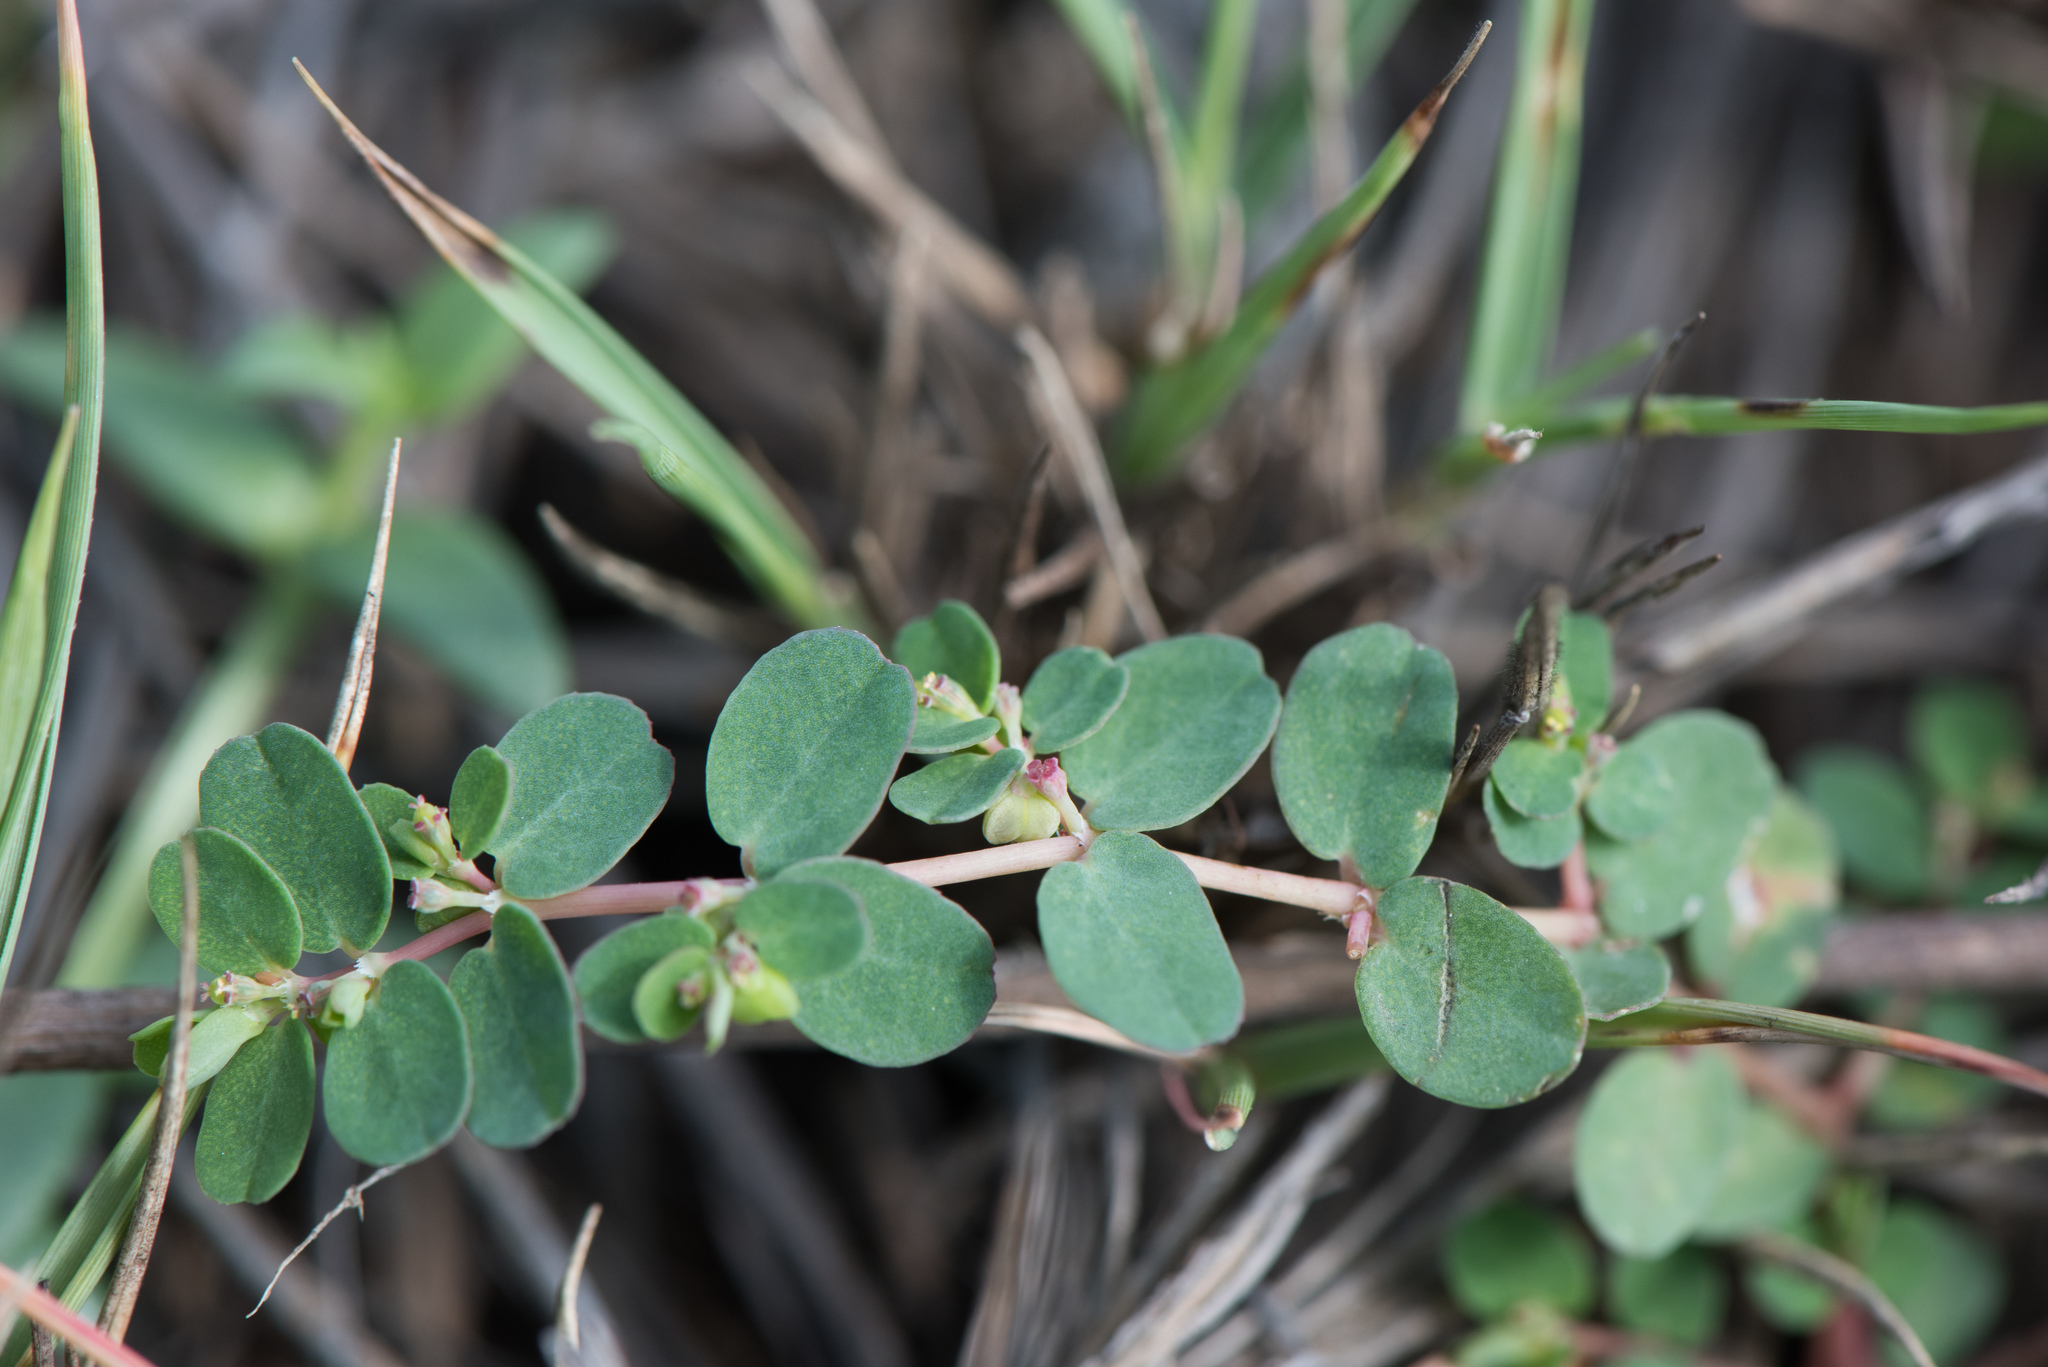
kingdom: Plantae
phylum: Tracheophyta
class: Magnoliopsida
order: Malpighiales
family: Euphorbiaceae
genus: Euphorbia
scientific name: Euphorbia taihsiensis
